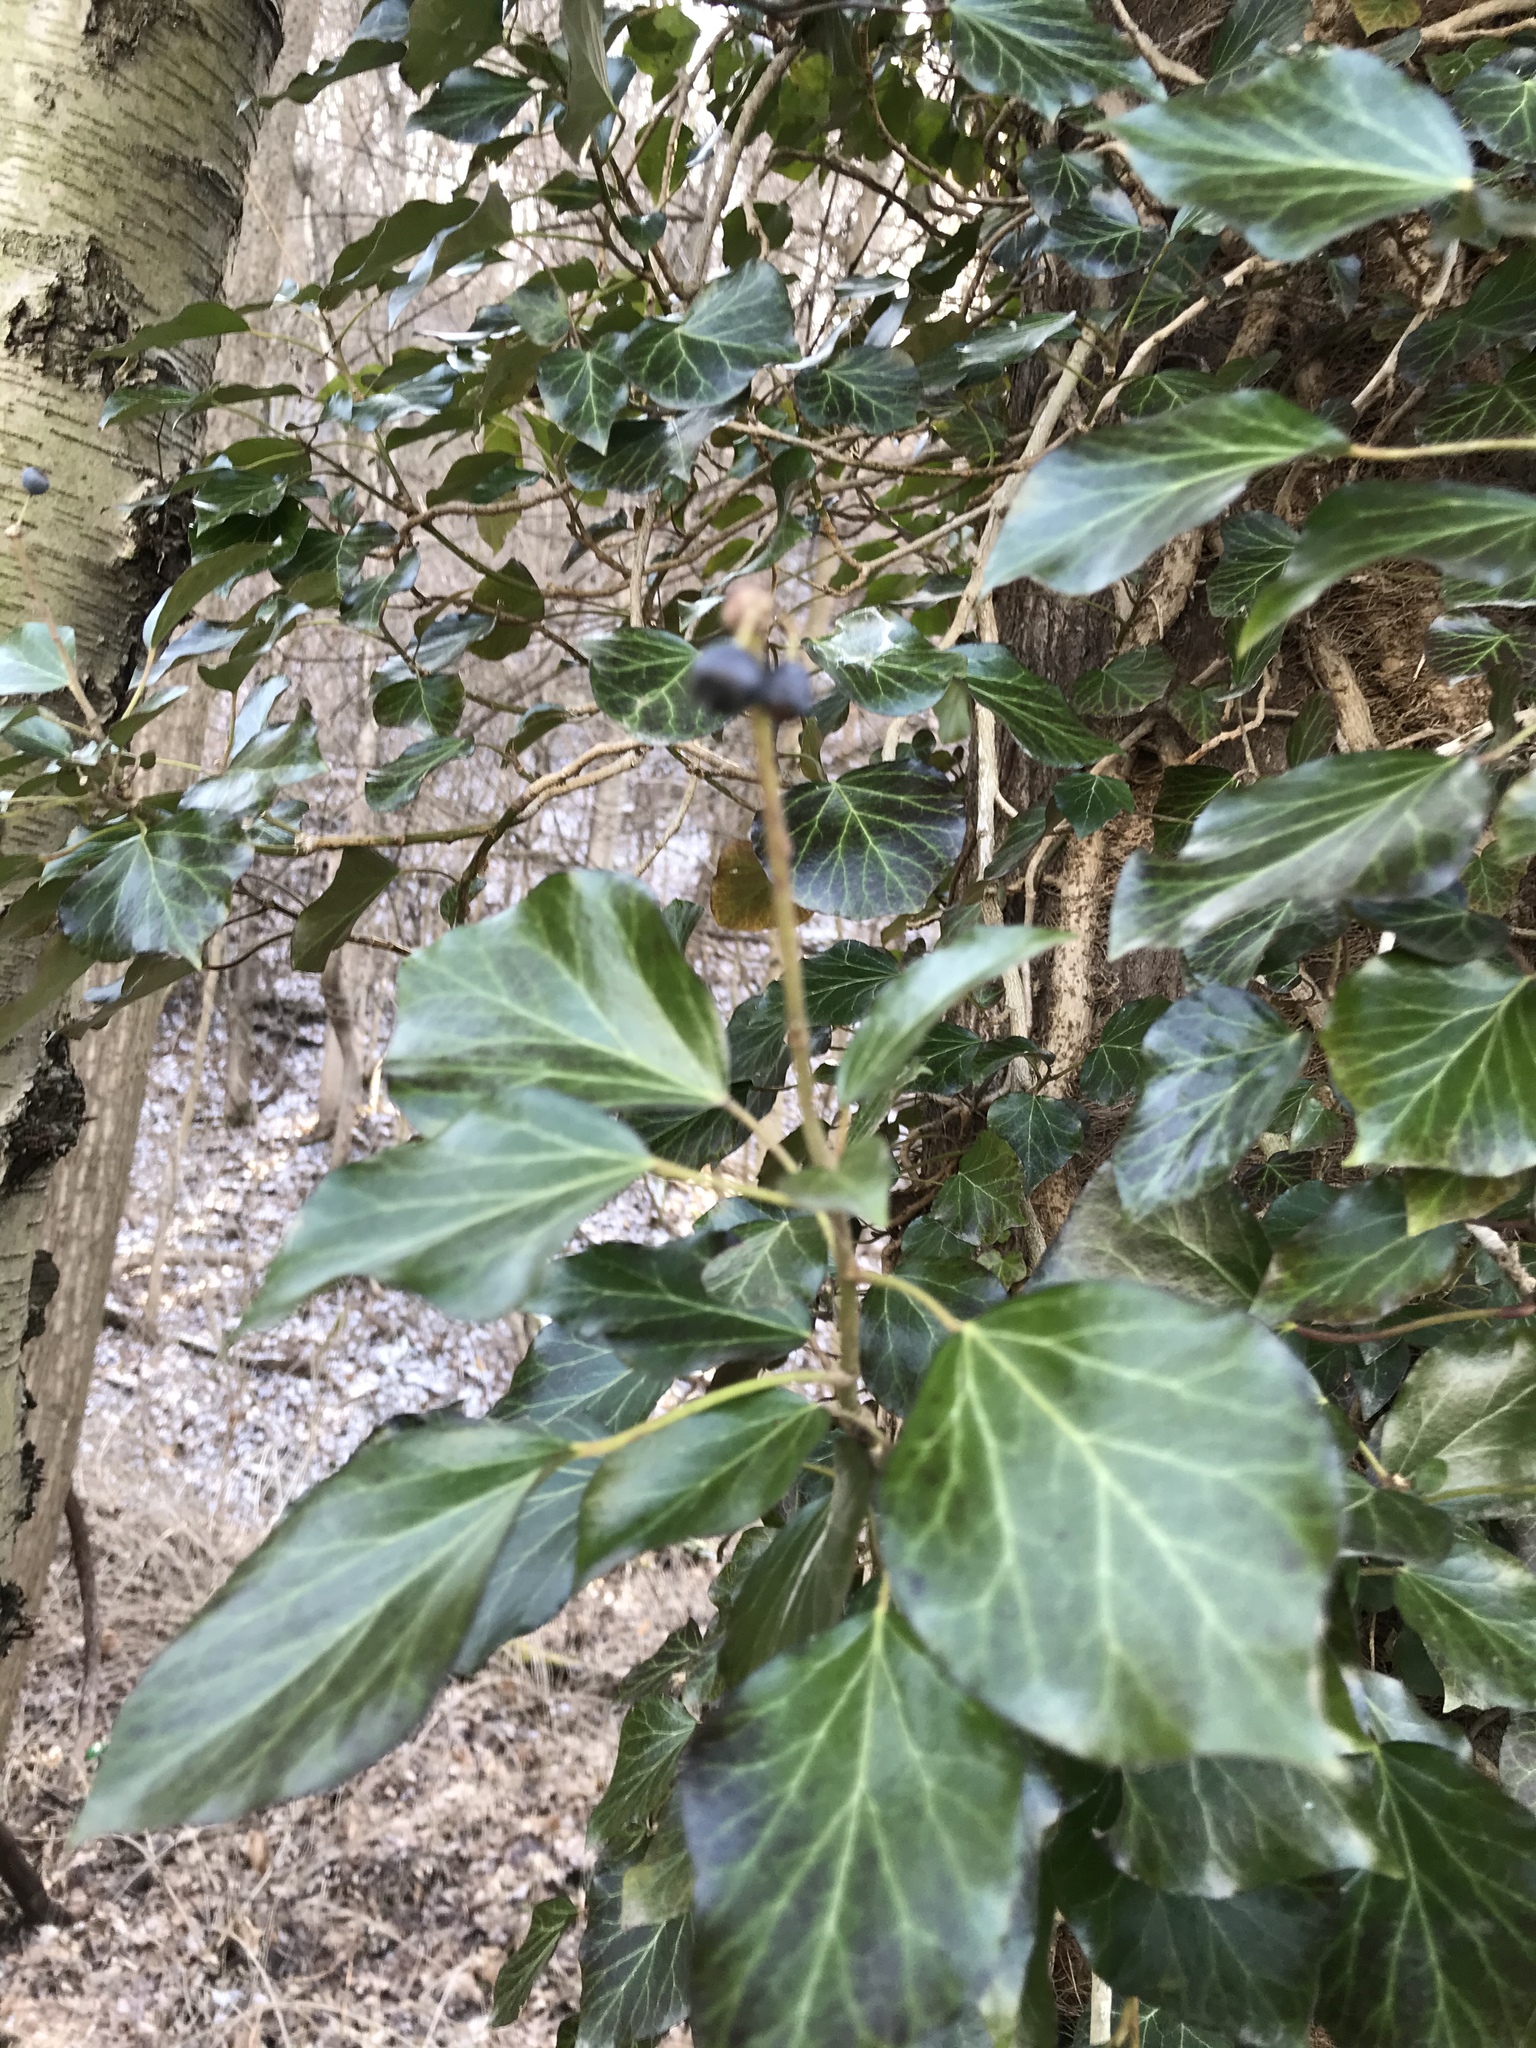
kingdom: Plantae
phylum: Tracheophyta
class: Magnoliopsida
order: Apiales
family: Araliaceae
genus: Hedera
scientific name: Hedera helix
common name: Ivy
